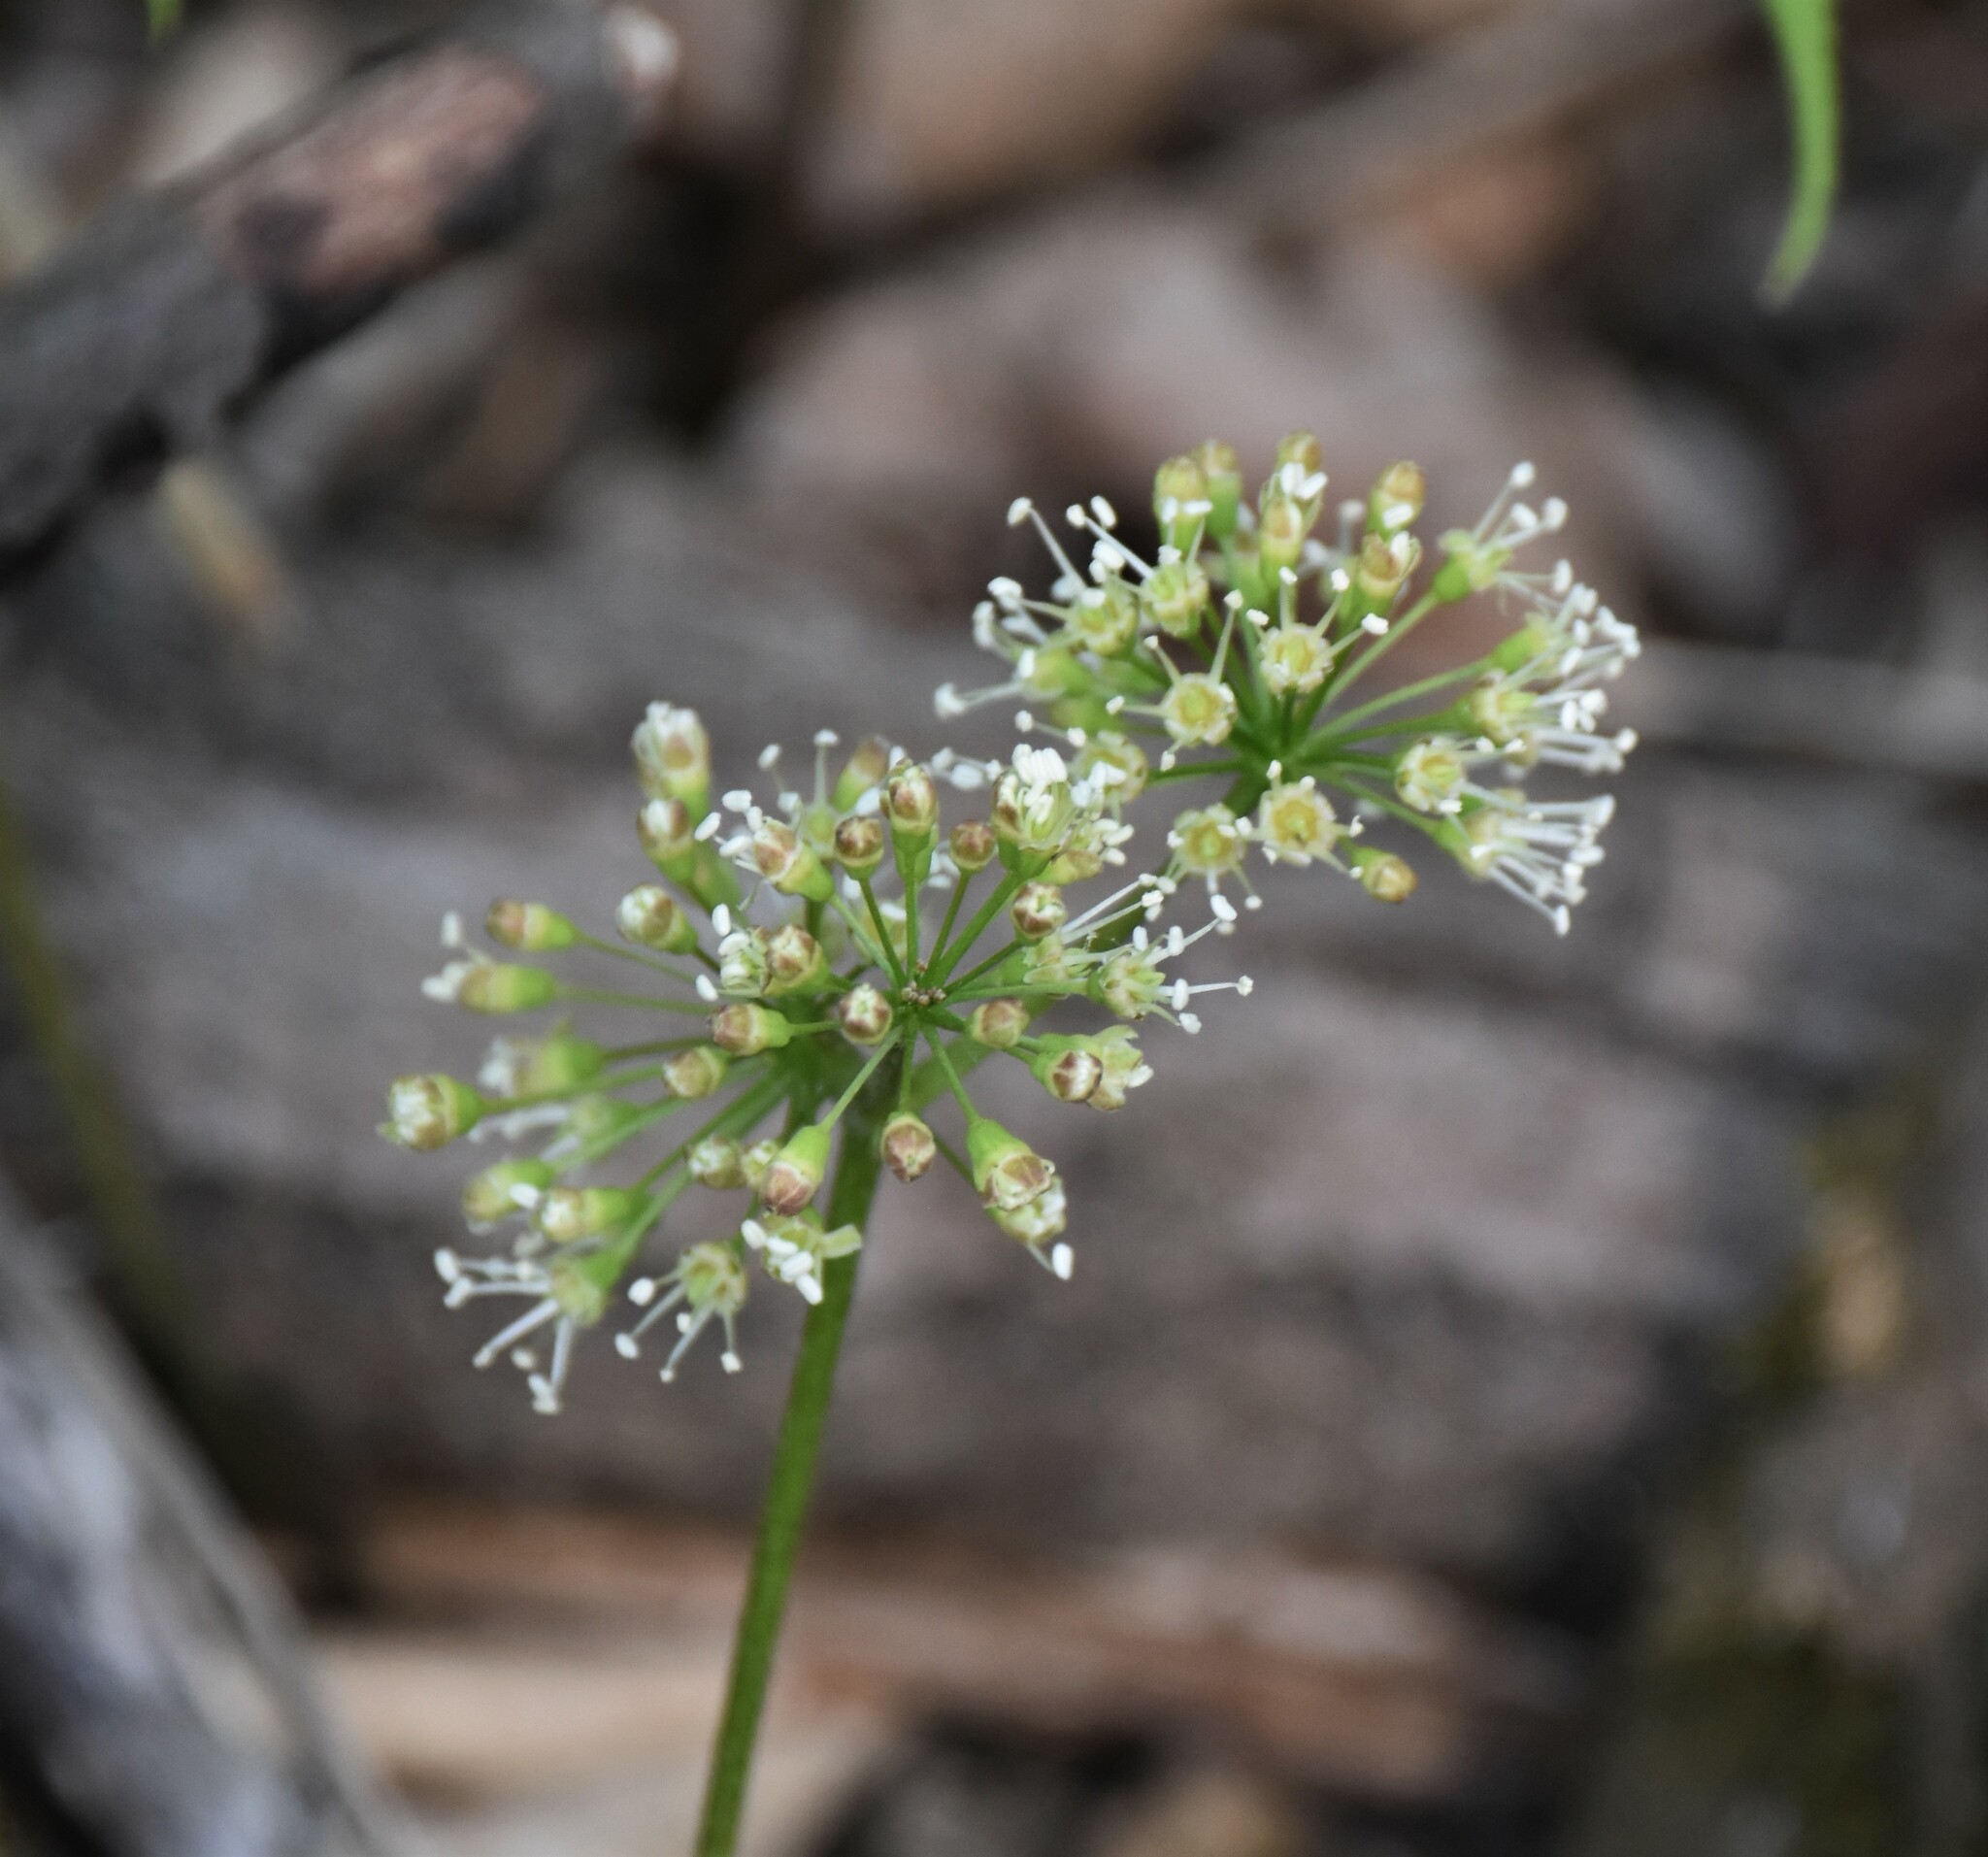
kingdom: Plantae
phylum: Tracheophyta
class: Magnoliopsida
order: Apiales
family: Araliaceae
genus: Aralia
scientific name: Aralia nudicaulis
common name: Wild sarsaparilla
